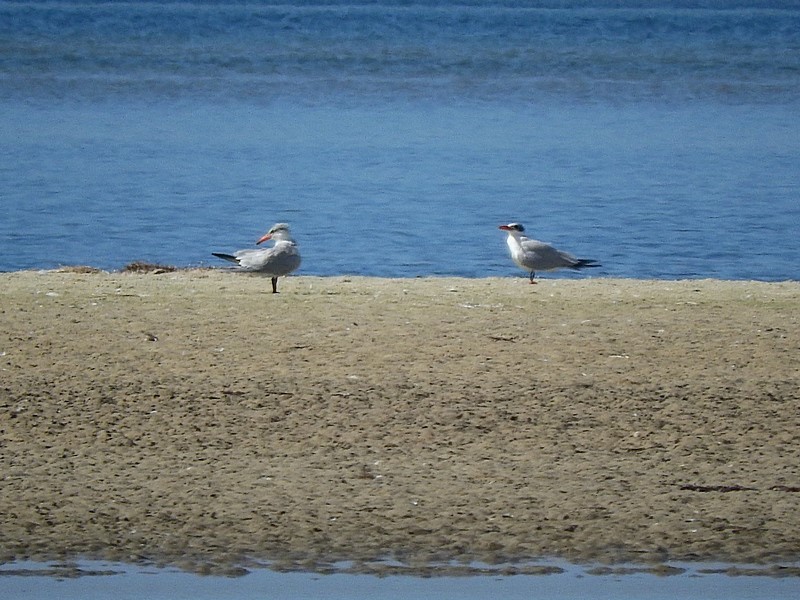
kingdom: Animalia
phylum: Chordata
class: Aves
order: Charadriiformes
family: Laridae
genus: Hydroprogne
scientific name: Hydroprogne caspia
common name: Caspian tern
